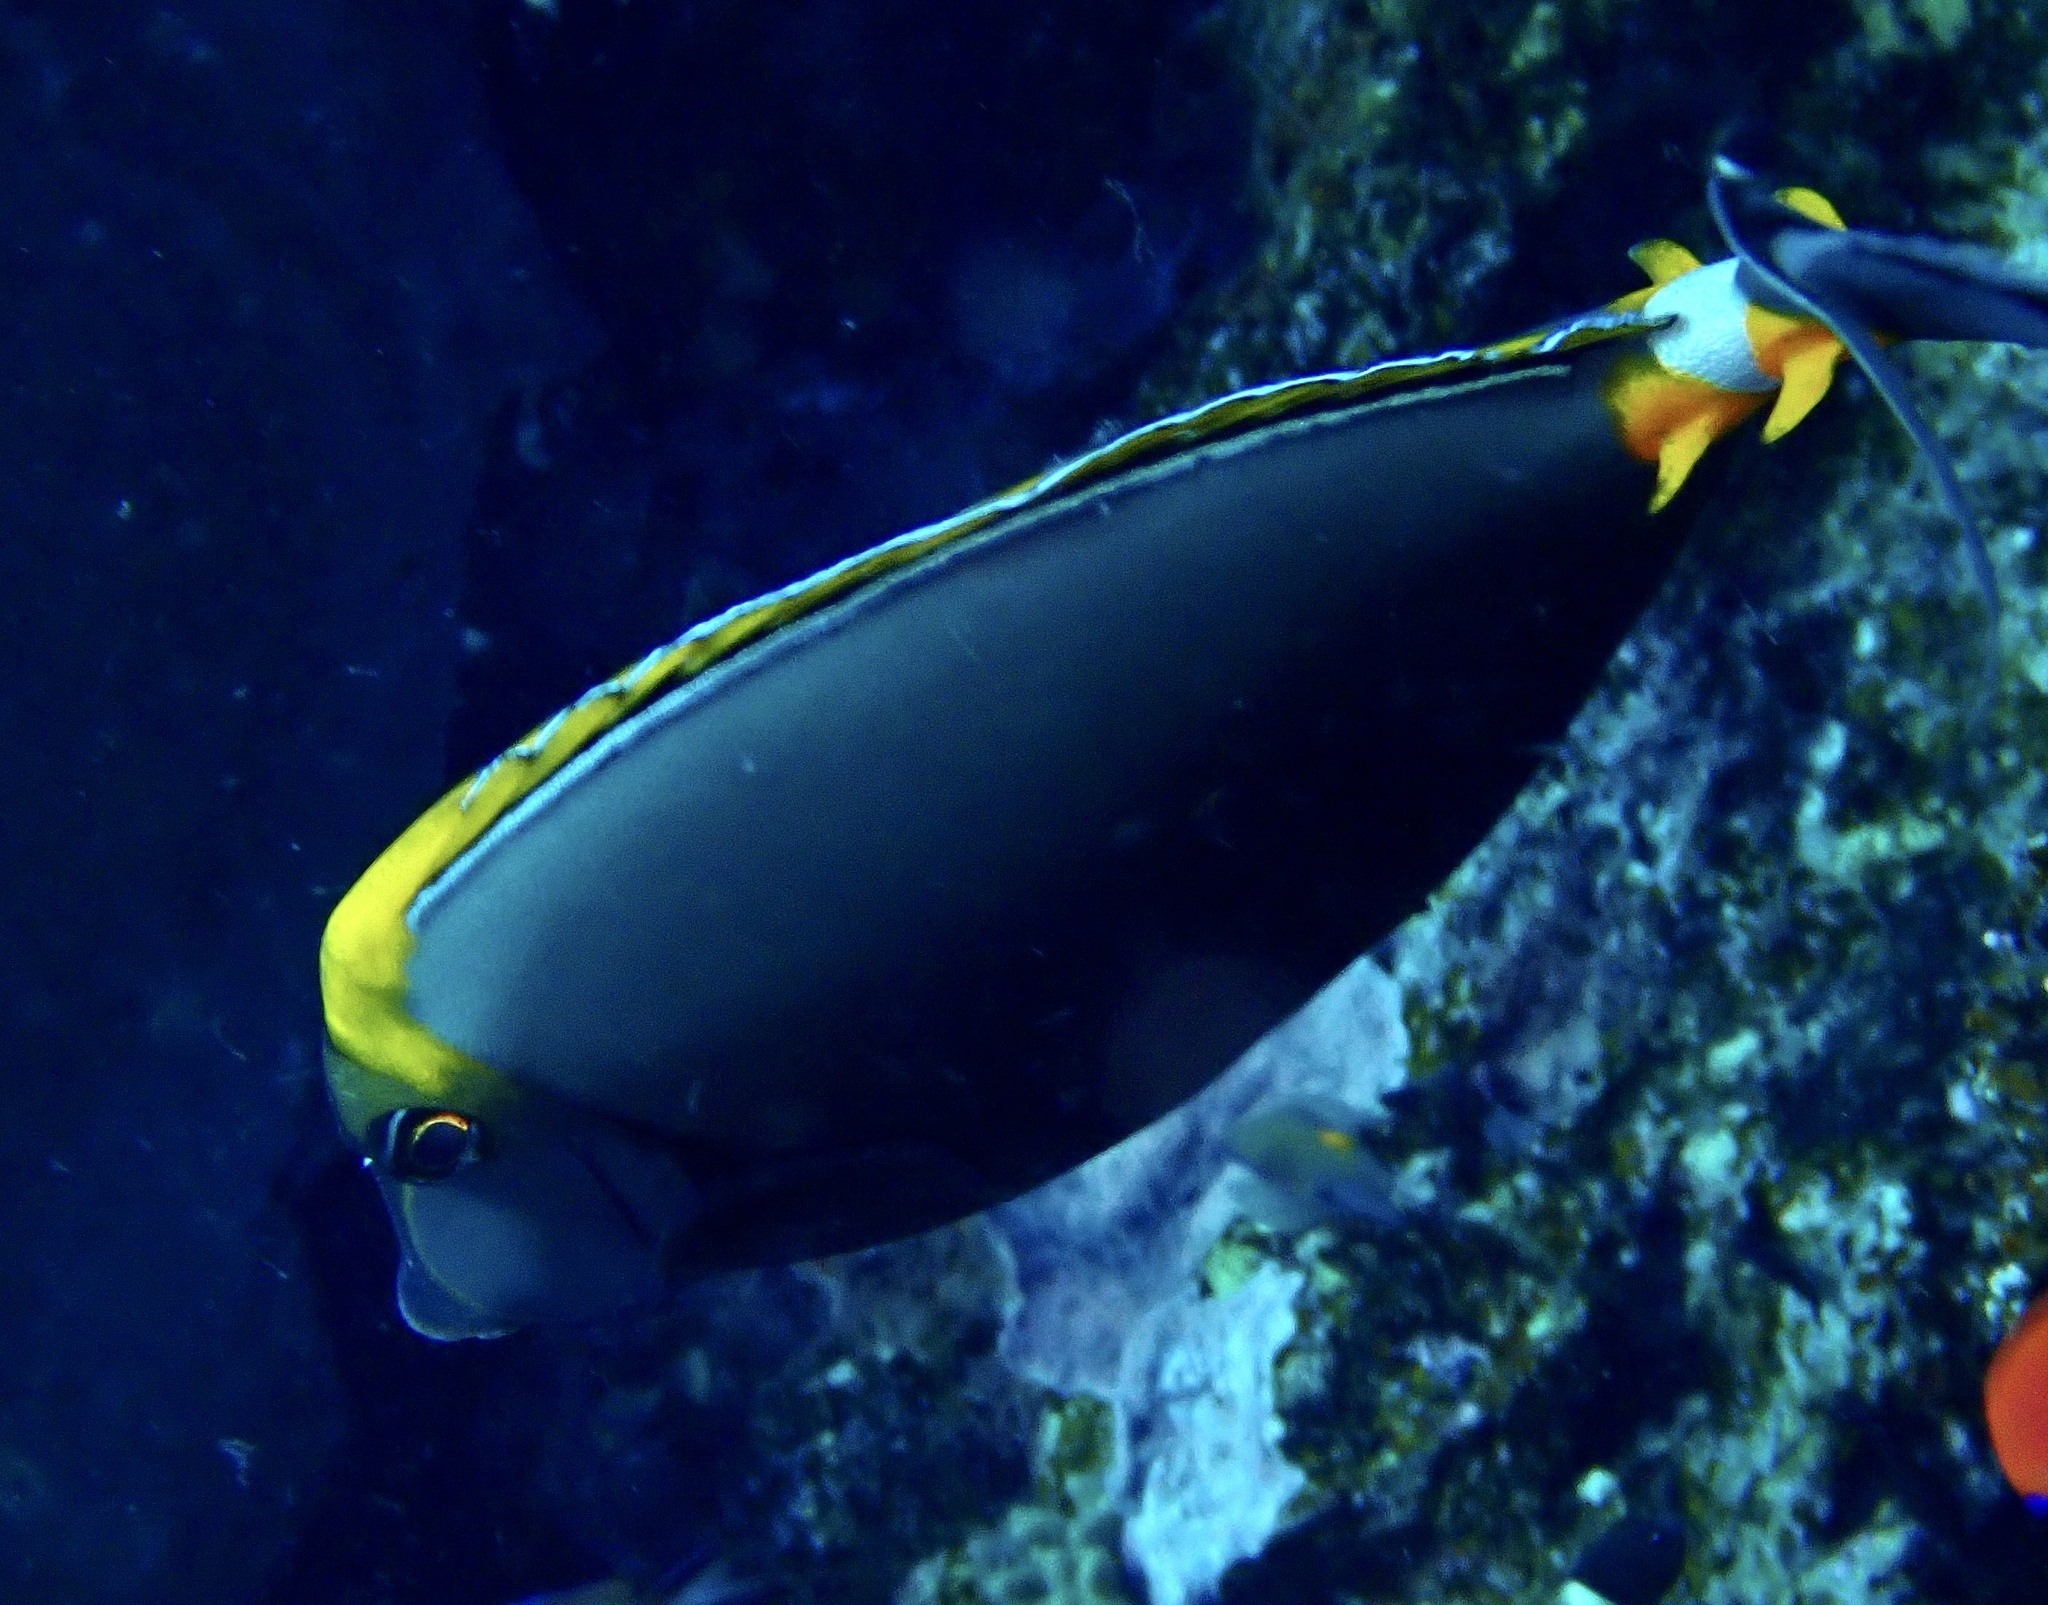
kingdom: Animalia
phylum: Chordata
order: Perciformes
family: Acanthuridae
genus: Naso
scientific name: Naso elegans
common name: Orangespine unicornfish
